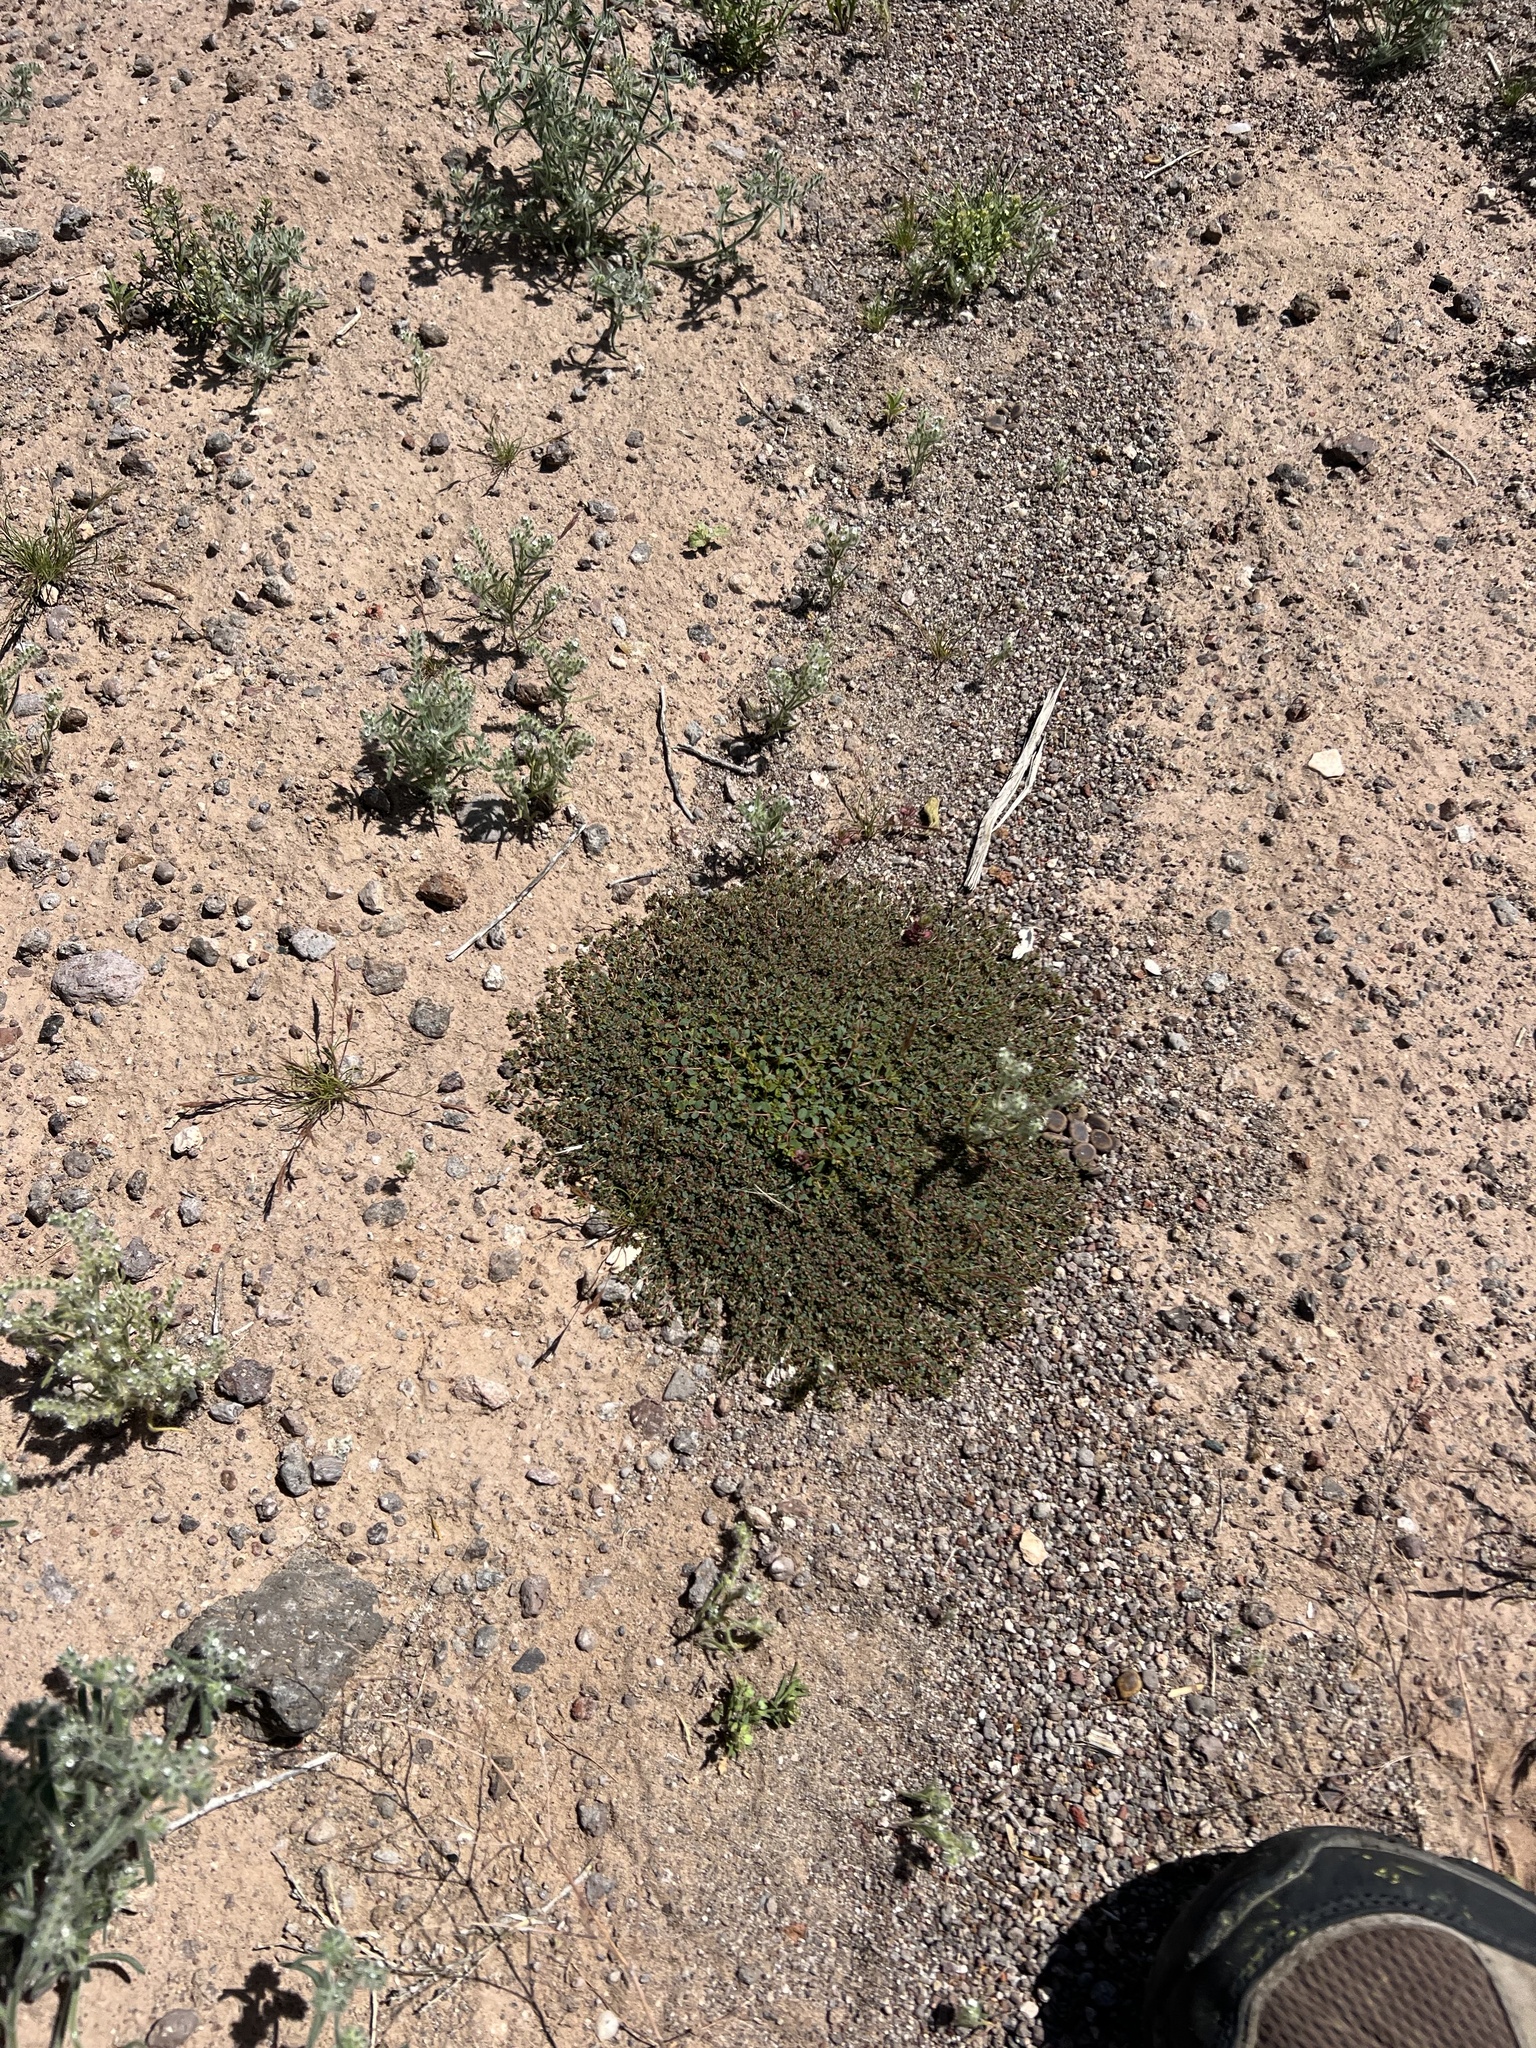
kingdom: Plantae
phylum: Tracheophyta
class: Magnoliopsida
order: Malpighiales
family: Euphorbiaceae
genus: Euphorbia
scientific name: Euphorbia polycarpa
